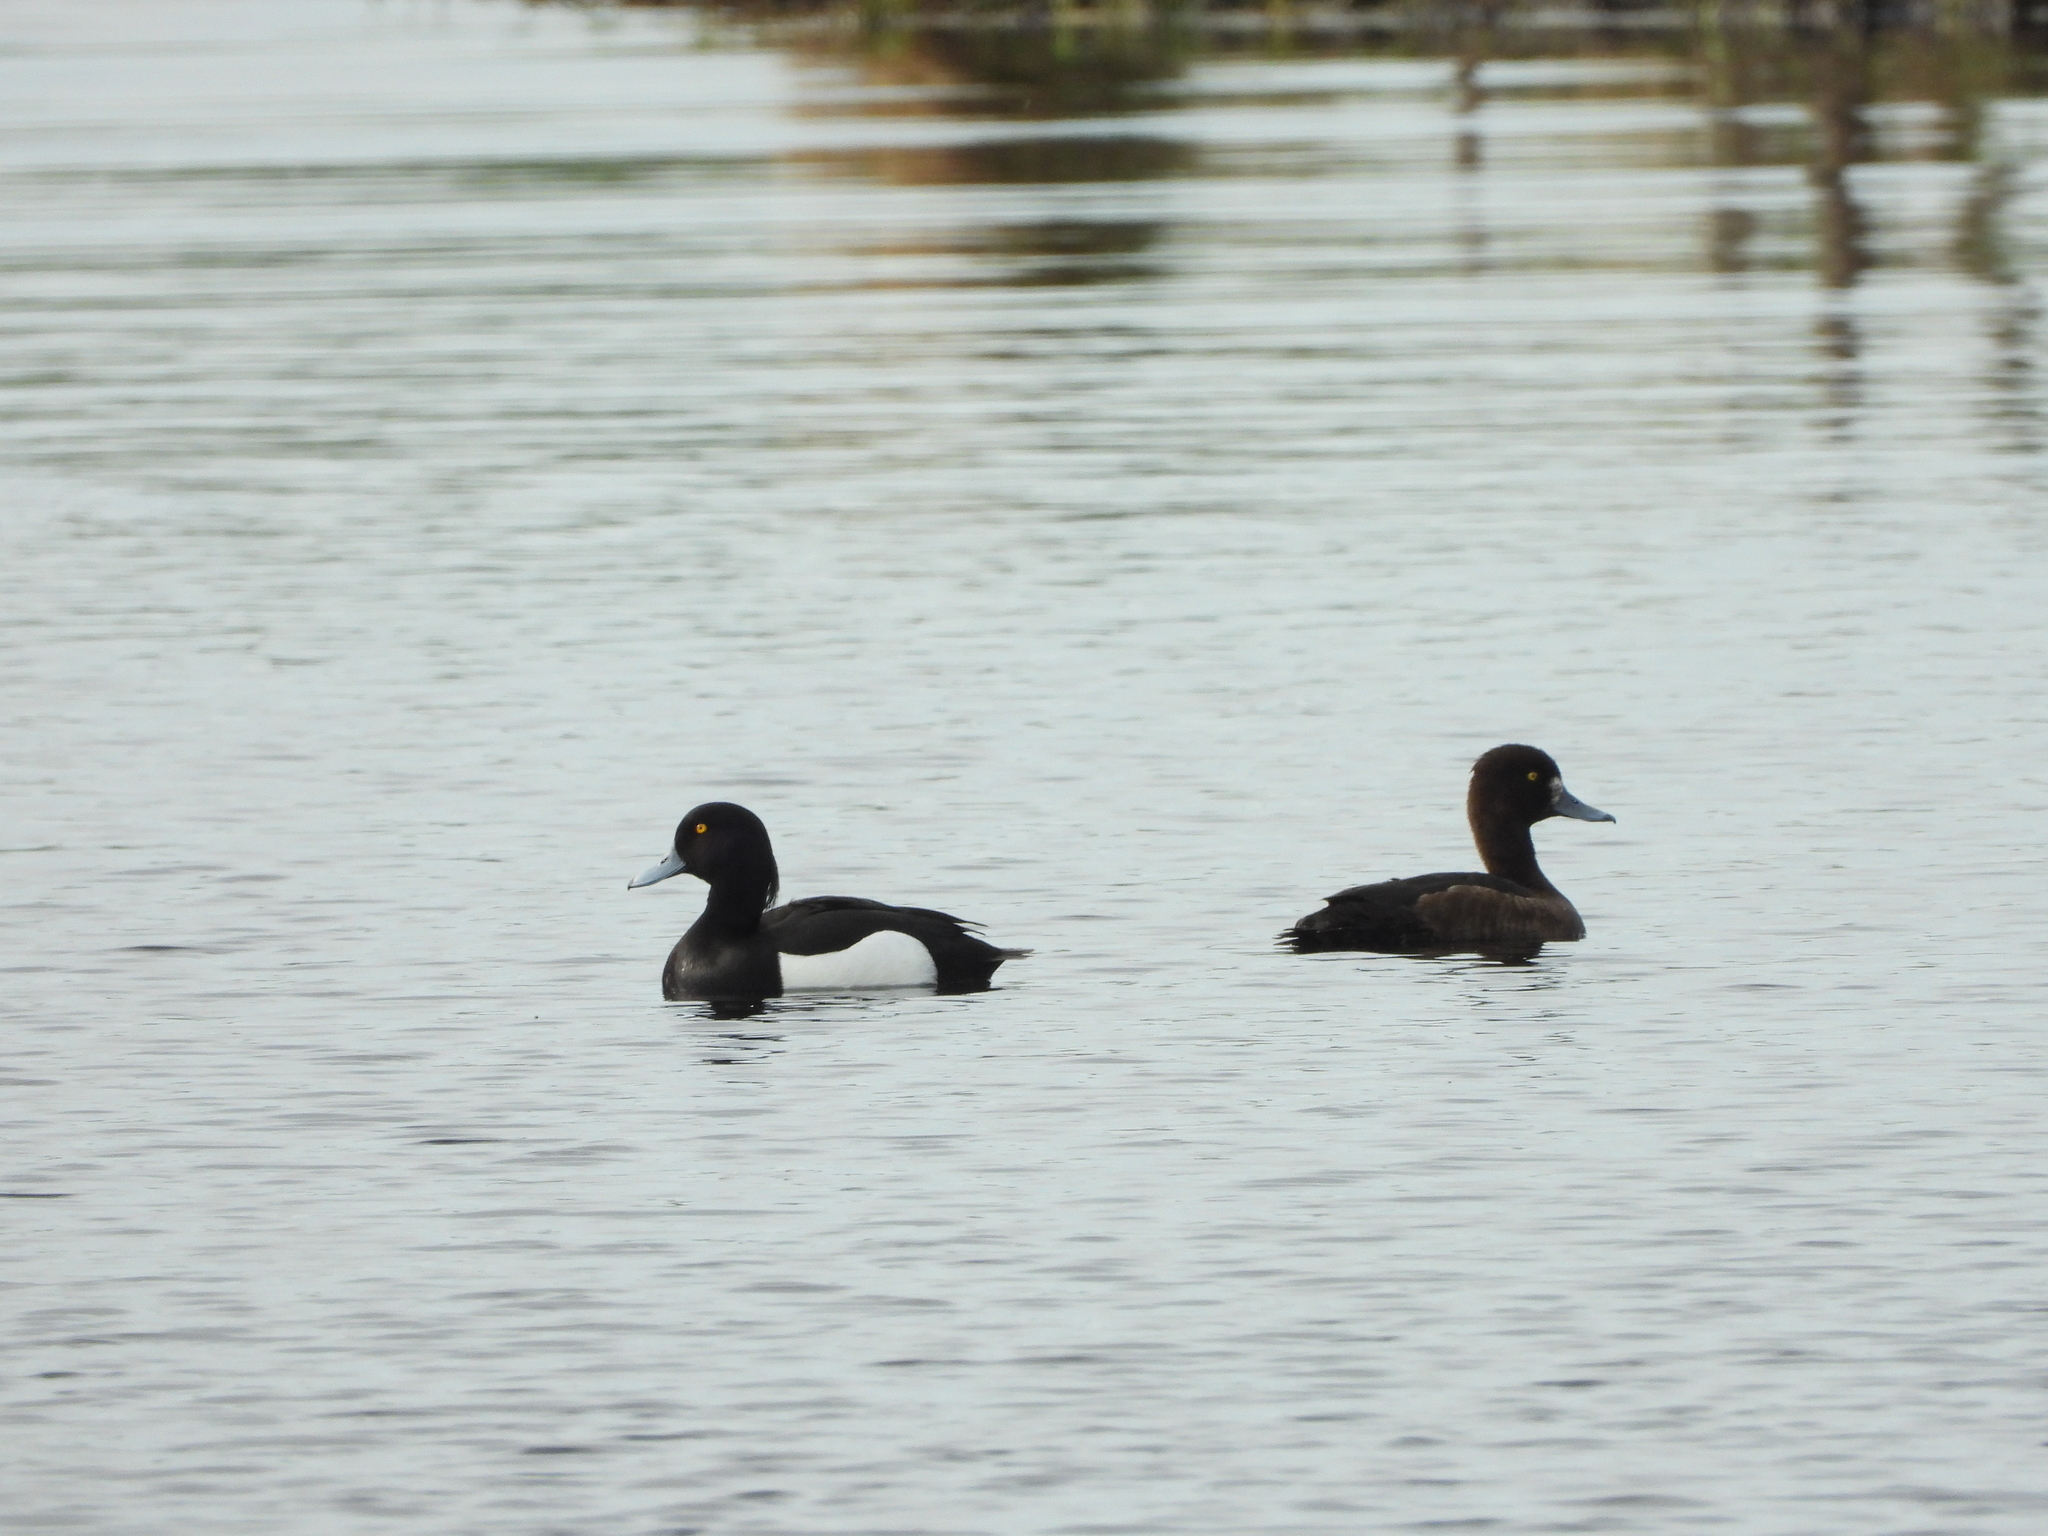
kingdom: Animalia
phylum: Chordata
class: Aves
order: Anseriformes
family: Anatidae
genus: Aythya
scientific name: Aythya fuligula
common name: Tufted duck
